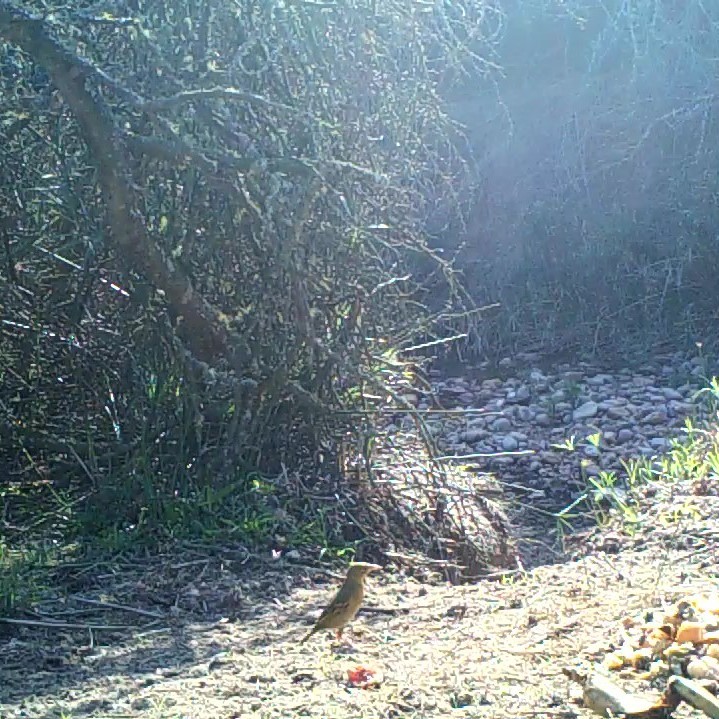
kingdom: Animalia
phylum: Chordata
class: Aves
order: Passeriformes
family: Ploceidae
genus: Ploceus
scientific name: Ploceus capensis
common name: Cape weaver
